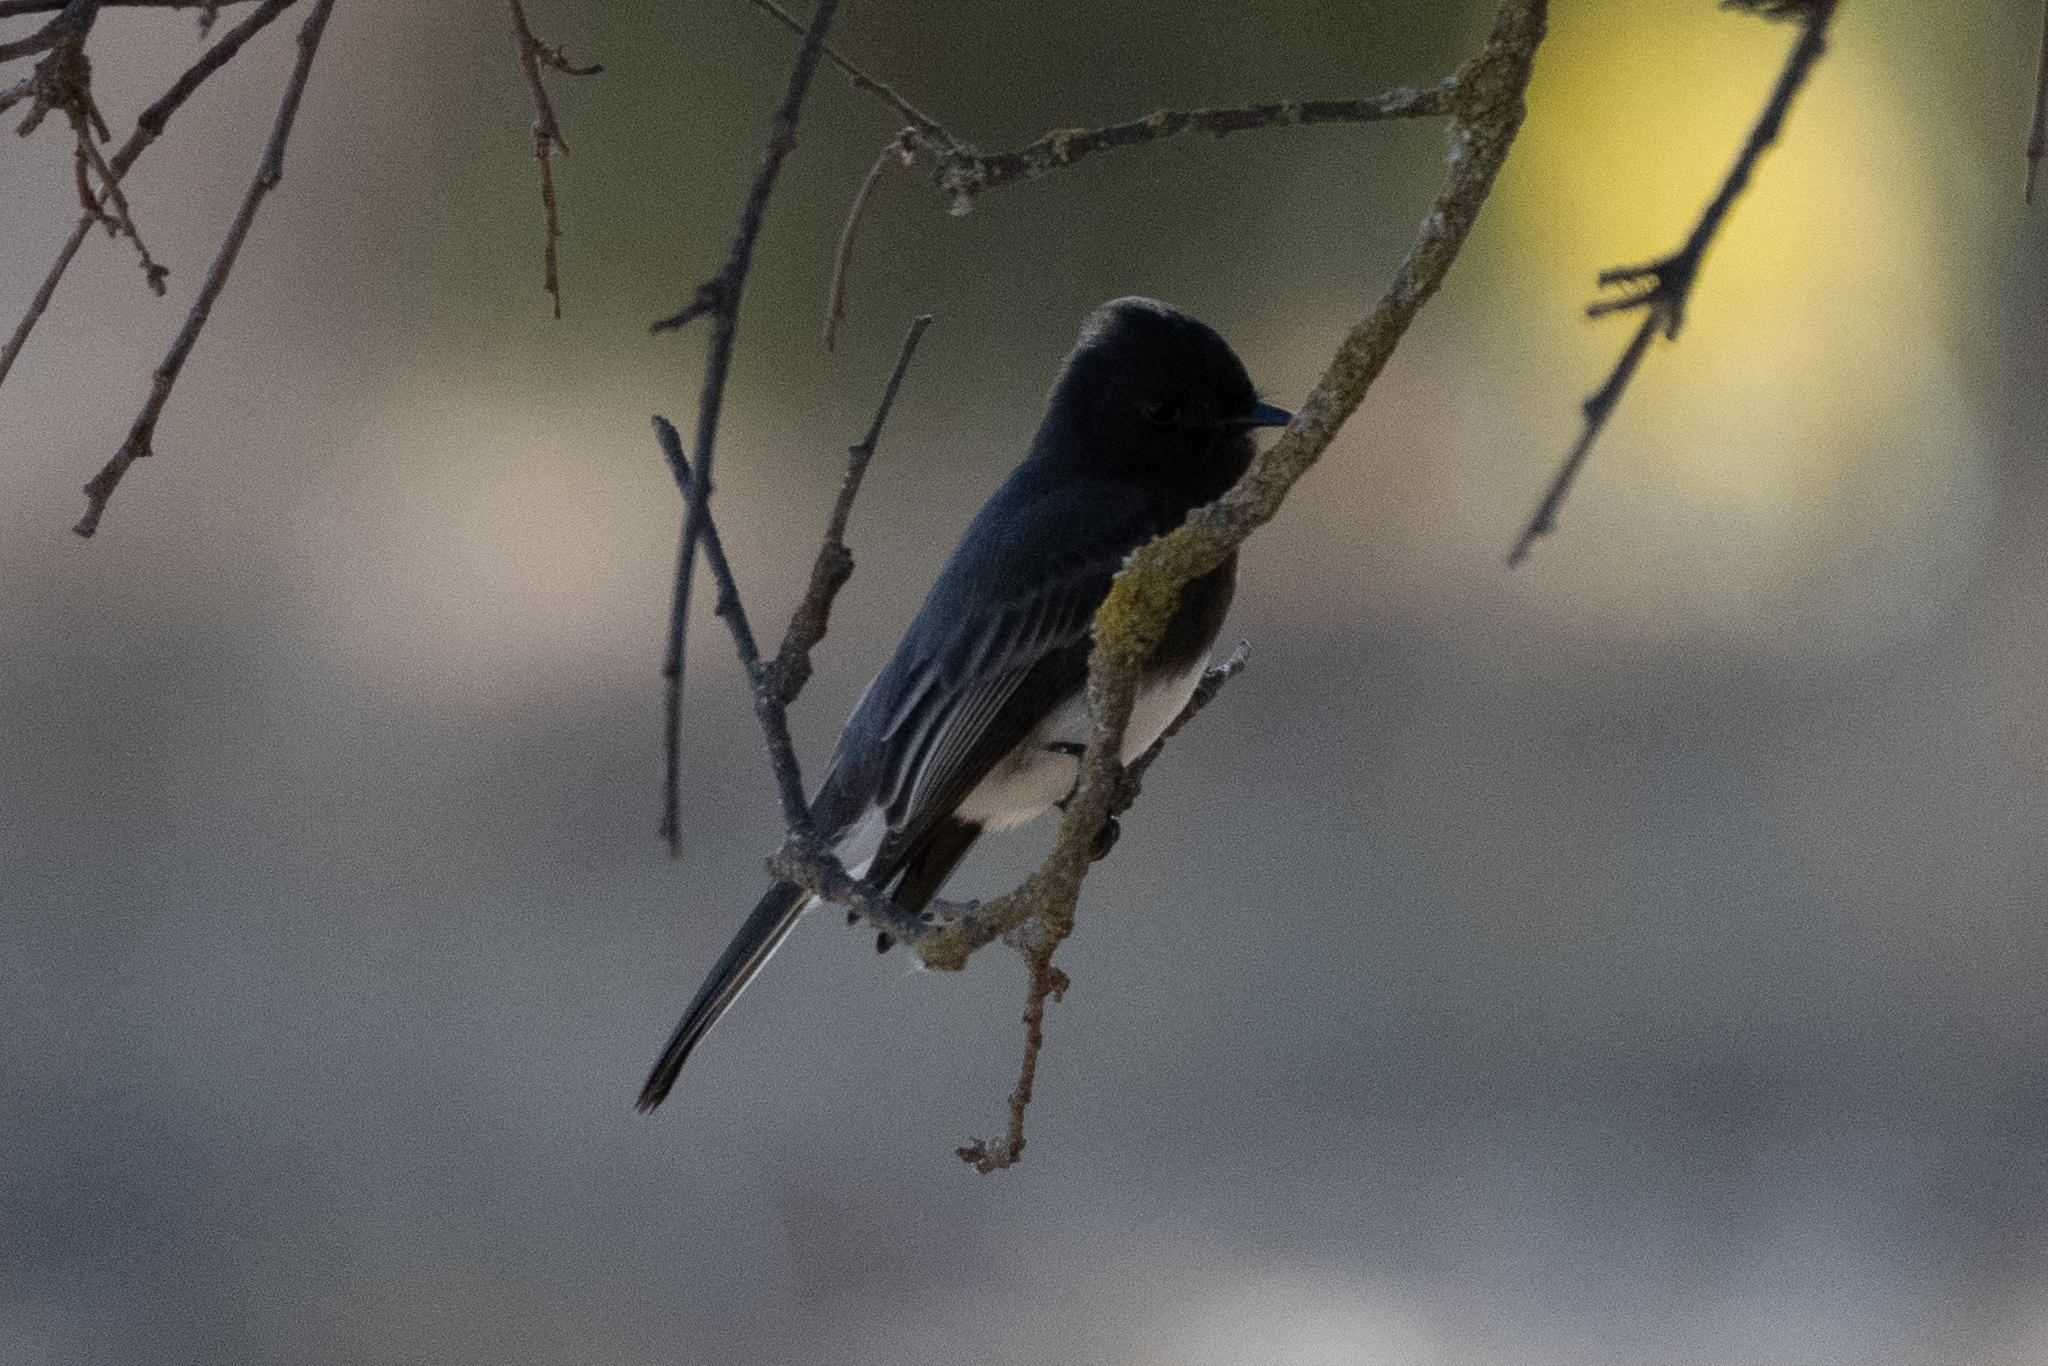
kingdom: Animalia
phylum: Chordata
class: Aves
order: Passeriformes
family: Tyrannidae
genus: Sayornis
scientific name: Sayornis nigricans
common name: Black phoebe
